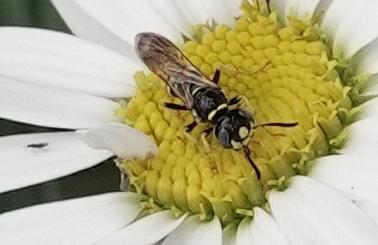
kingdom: Animalia
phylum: Arthropoda
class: Insecta
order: Hymenoptera
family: Crabronidae
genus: Philanthus
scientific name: Philanthus bilunatus
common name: Two moons beewolf
